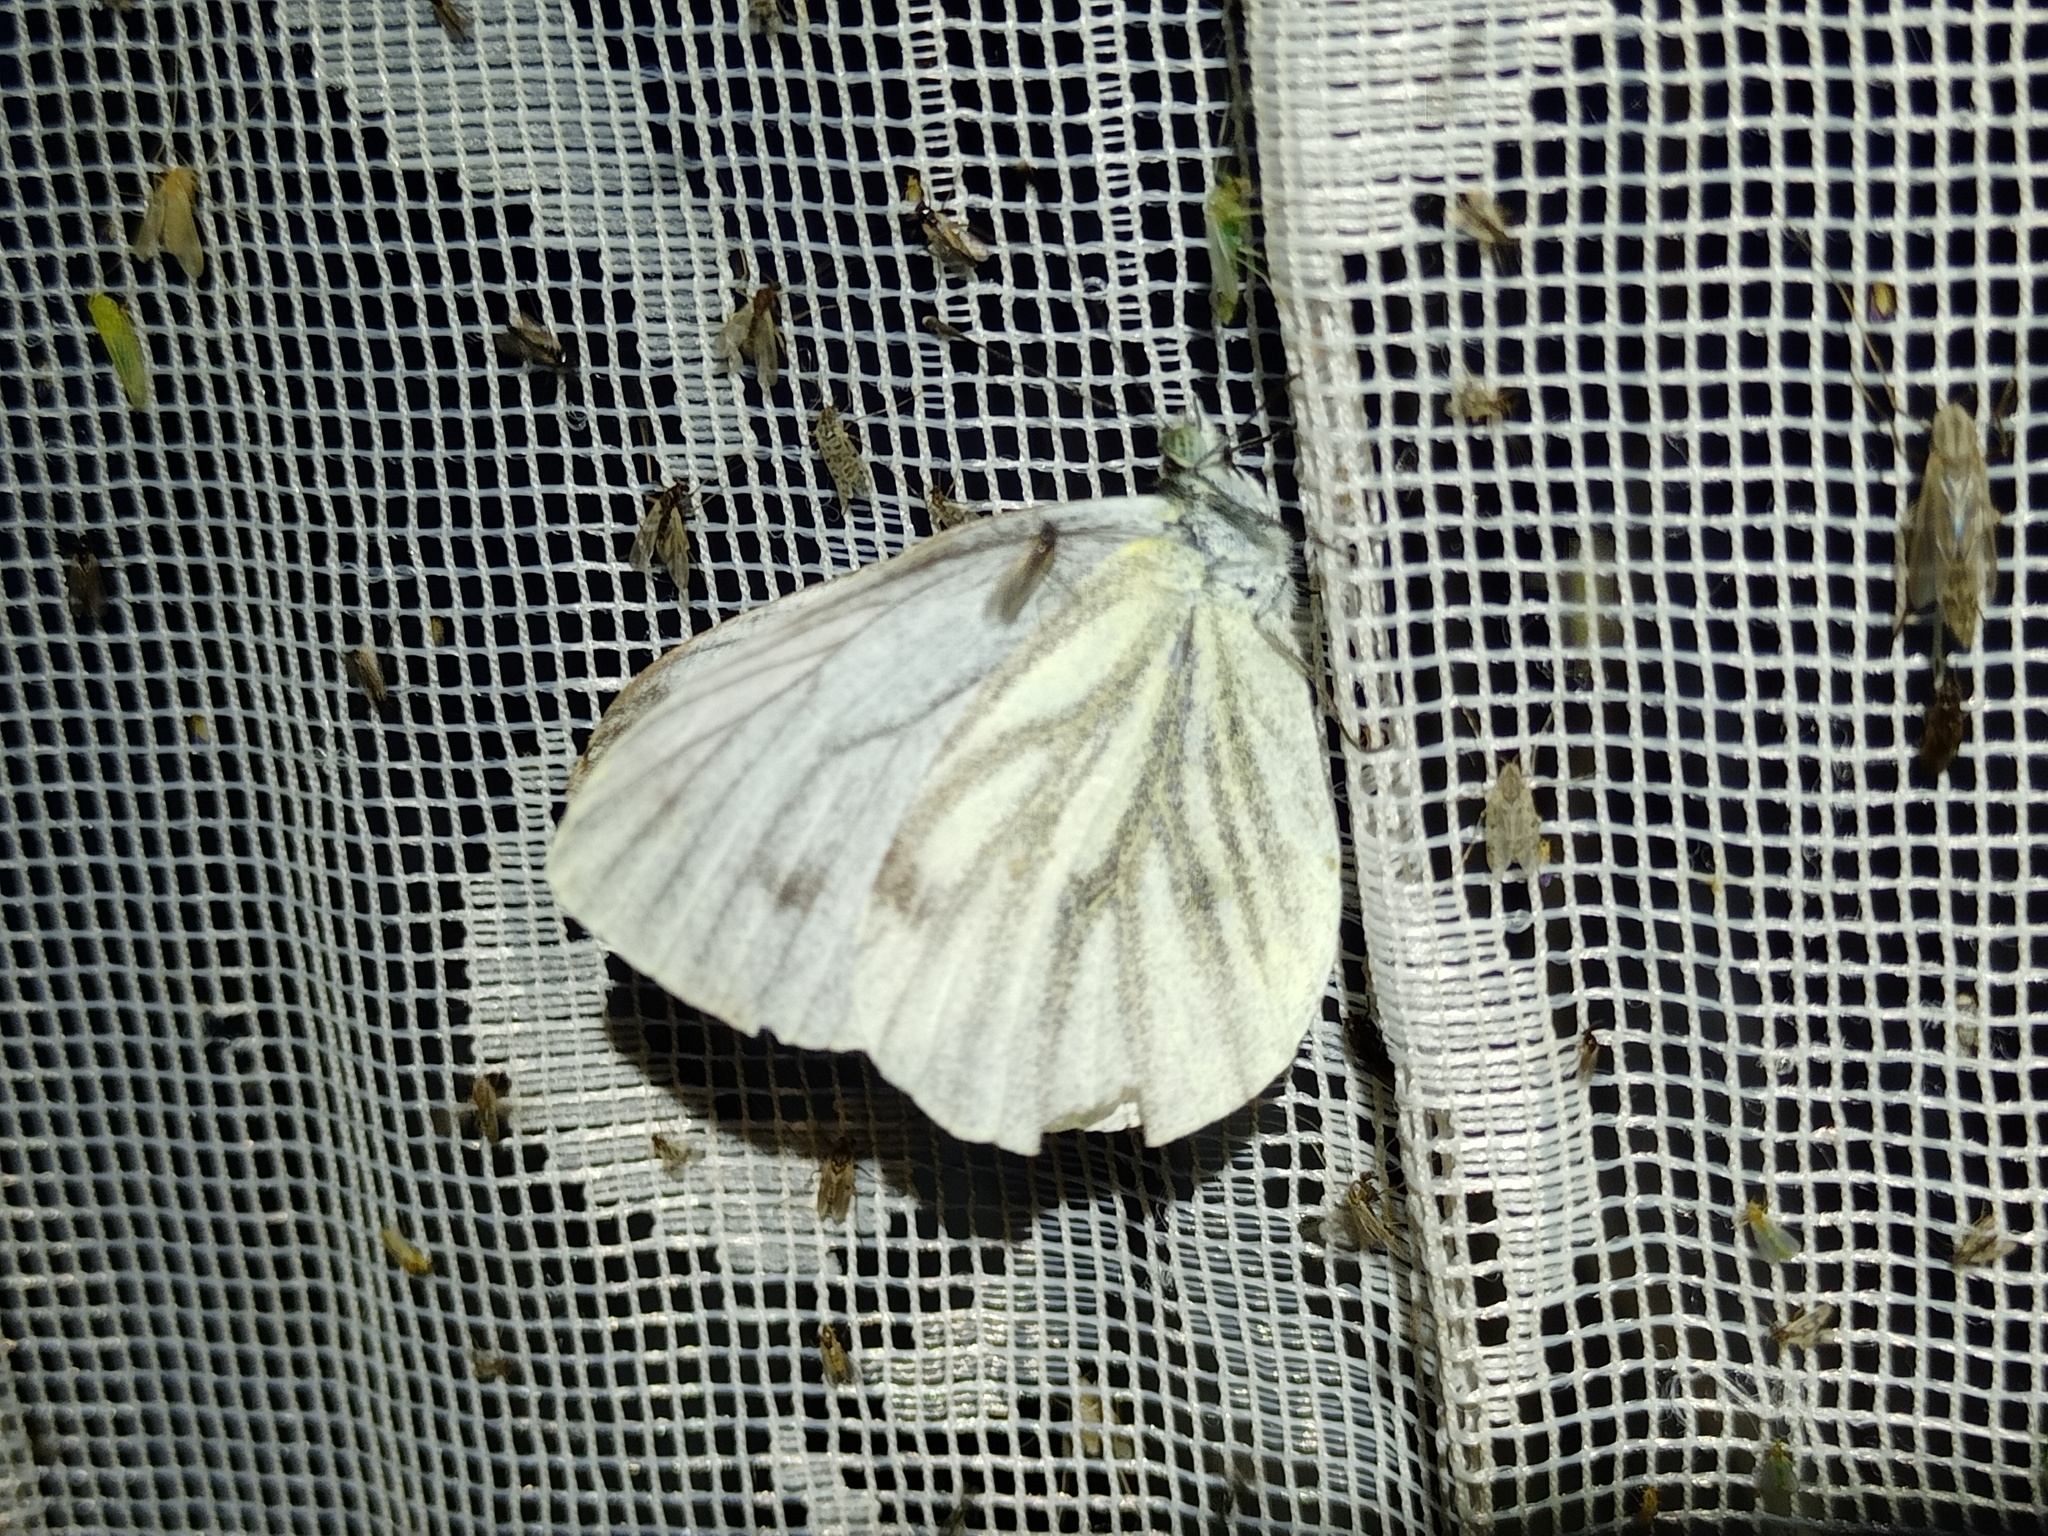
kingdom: Animalia
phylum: Arthropoda
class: Insecta
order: Lepidoptera
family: Pieridae
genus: Pieris
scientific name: Pieris napi
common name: Green-veined white
